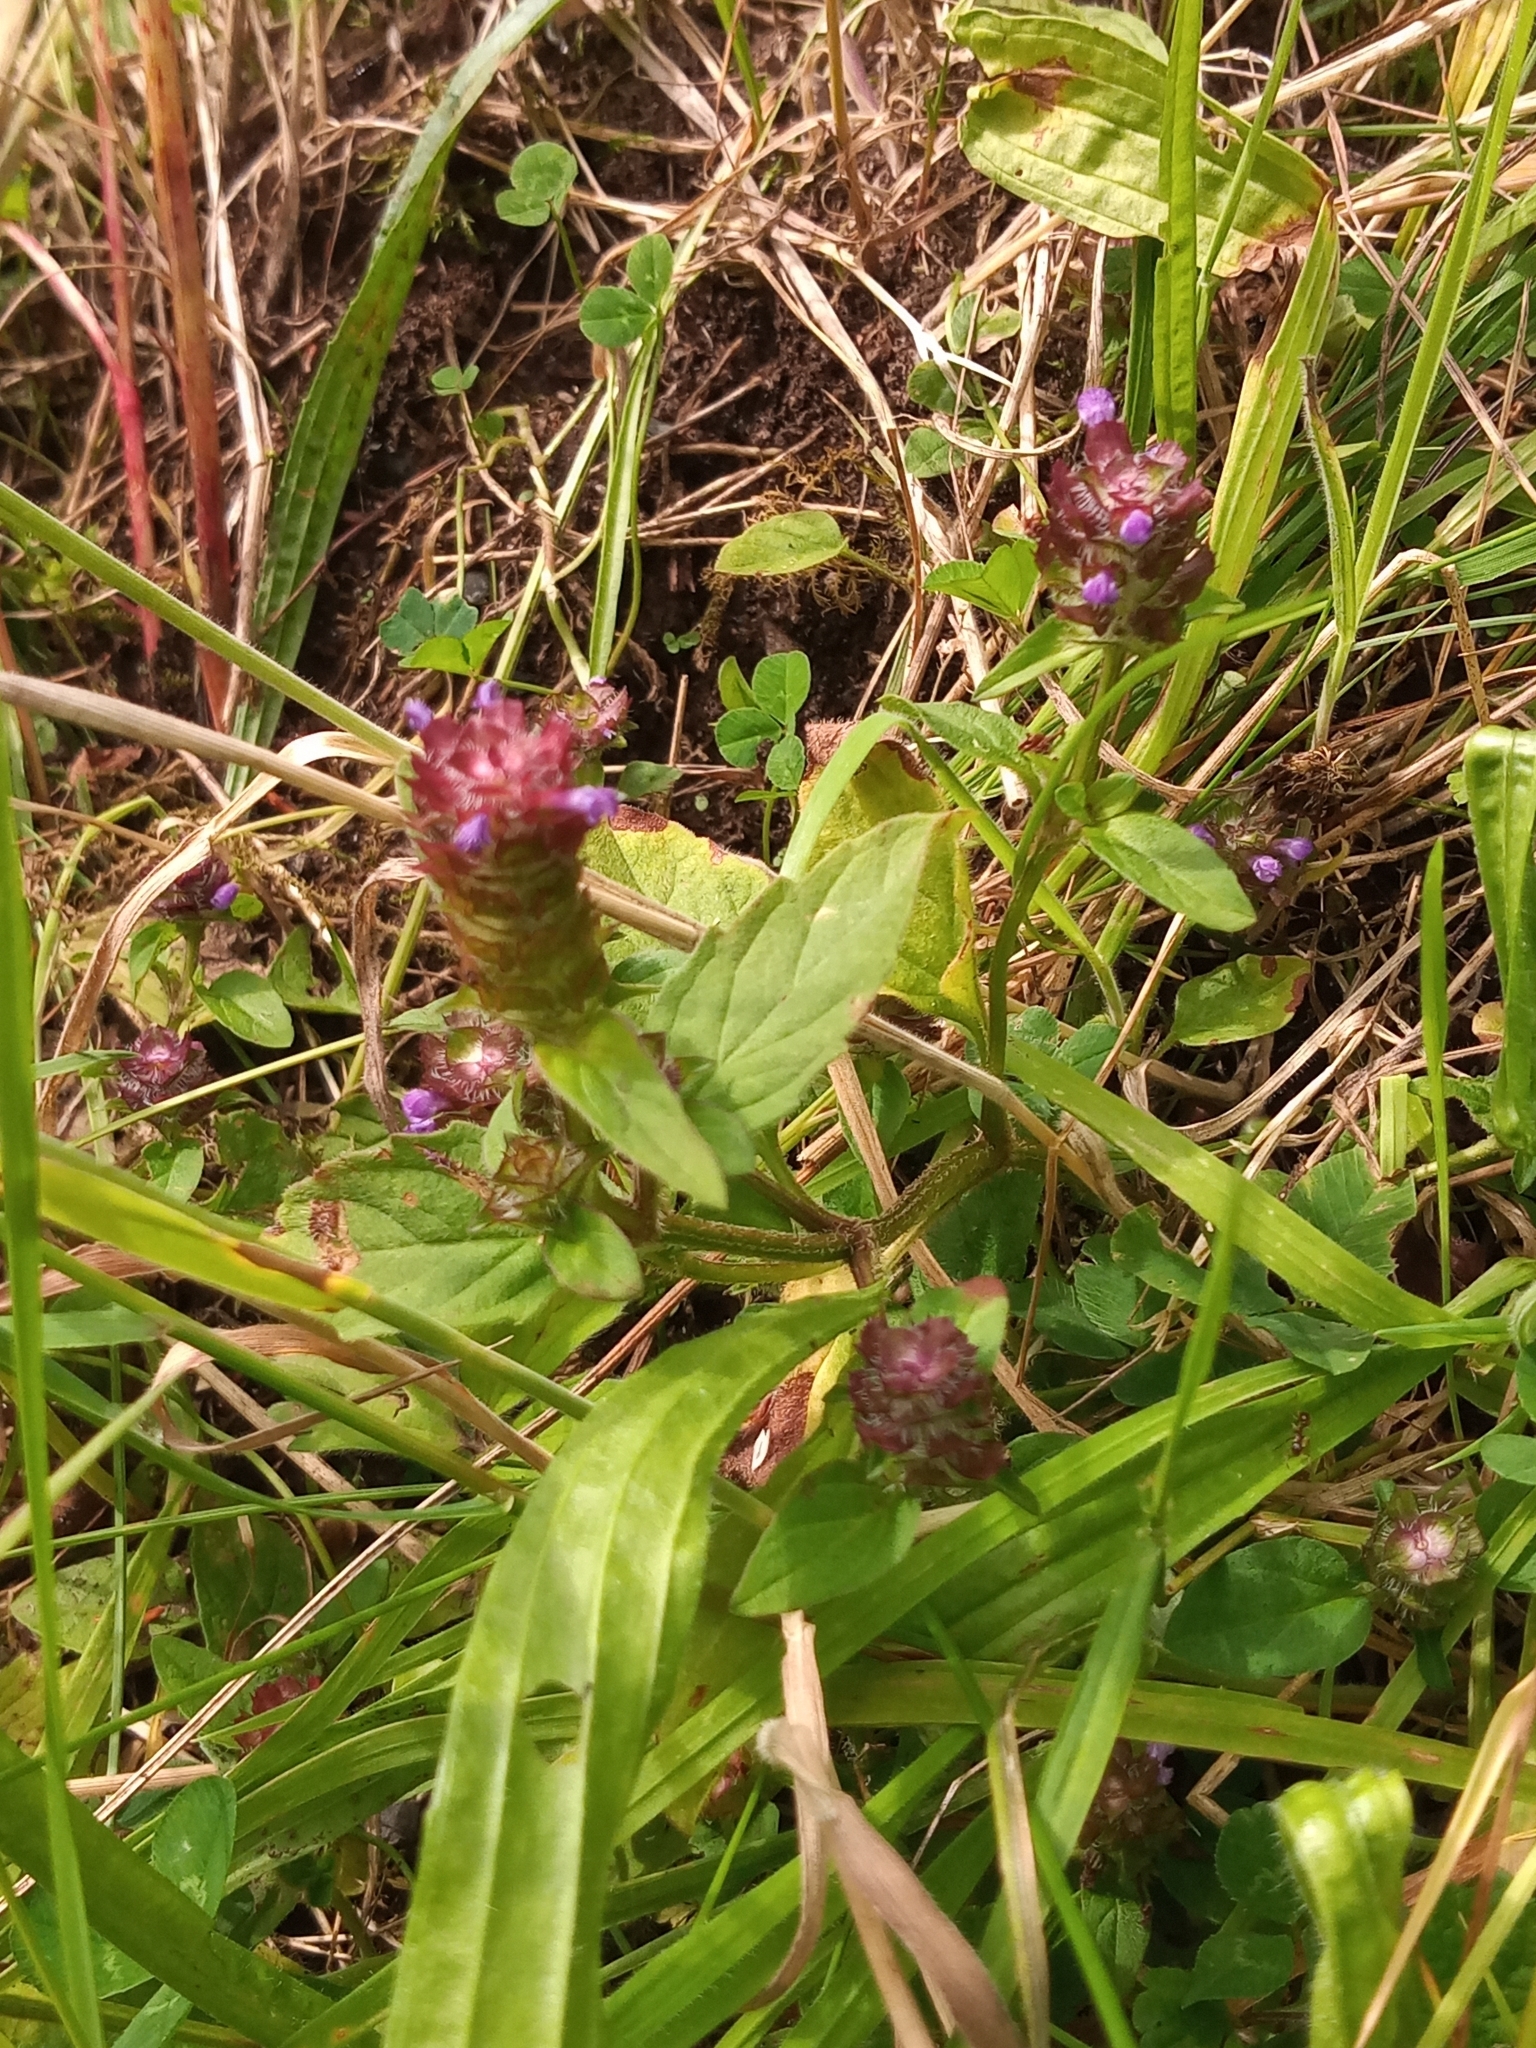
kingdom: Plantae
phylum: Tracheophyta
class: Magnoliopsida
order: Lamiales
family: Lamiaceae
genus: Prunella
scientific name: Prunella vulgaris
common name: Heal-all
